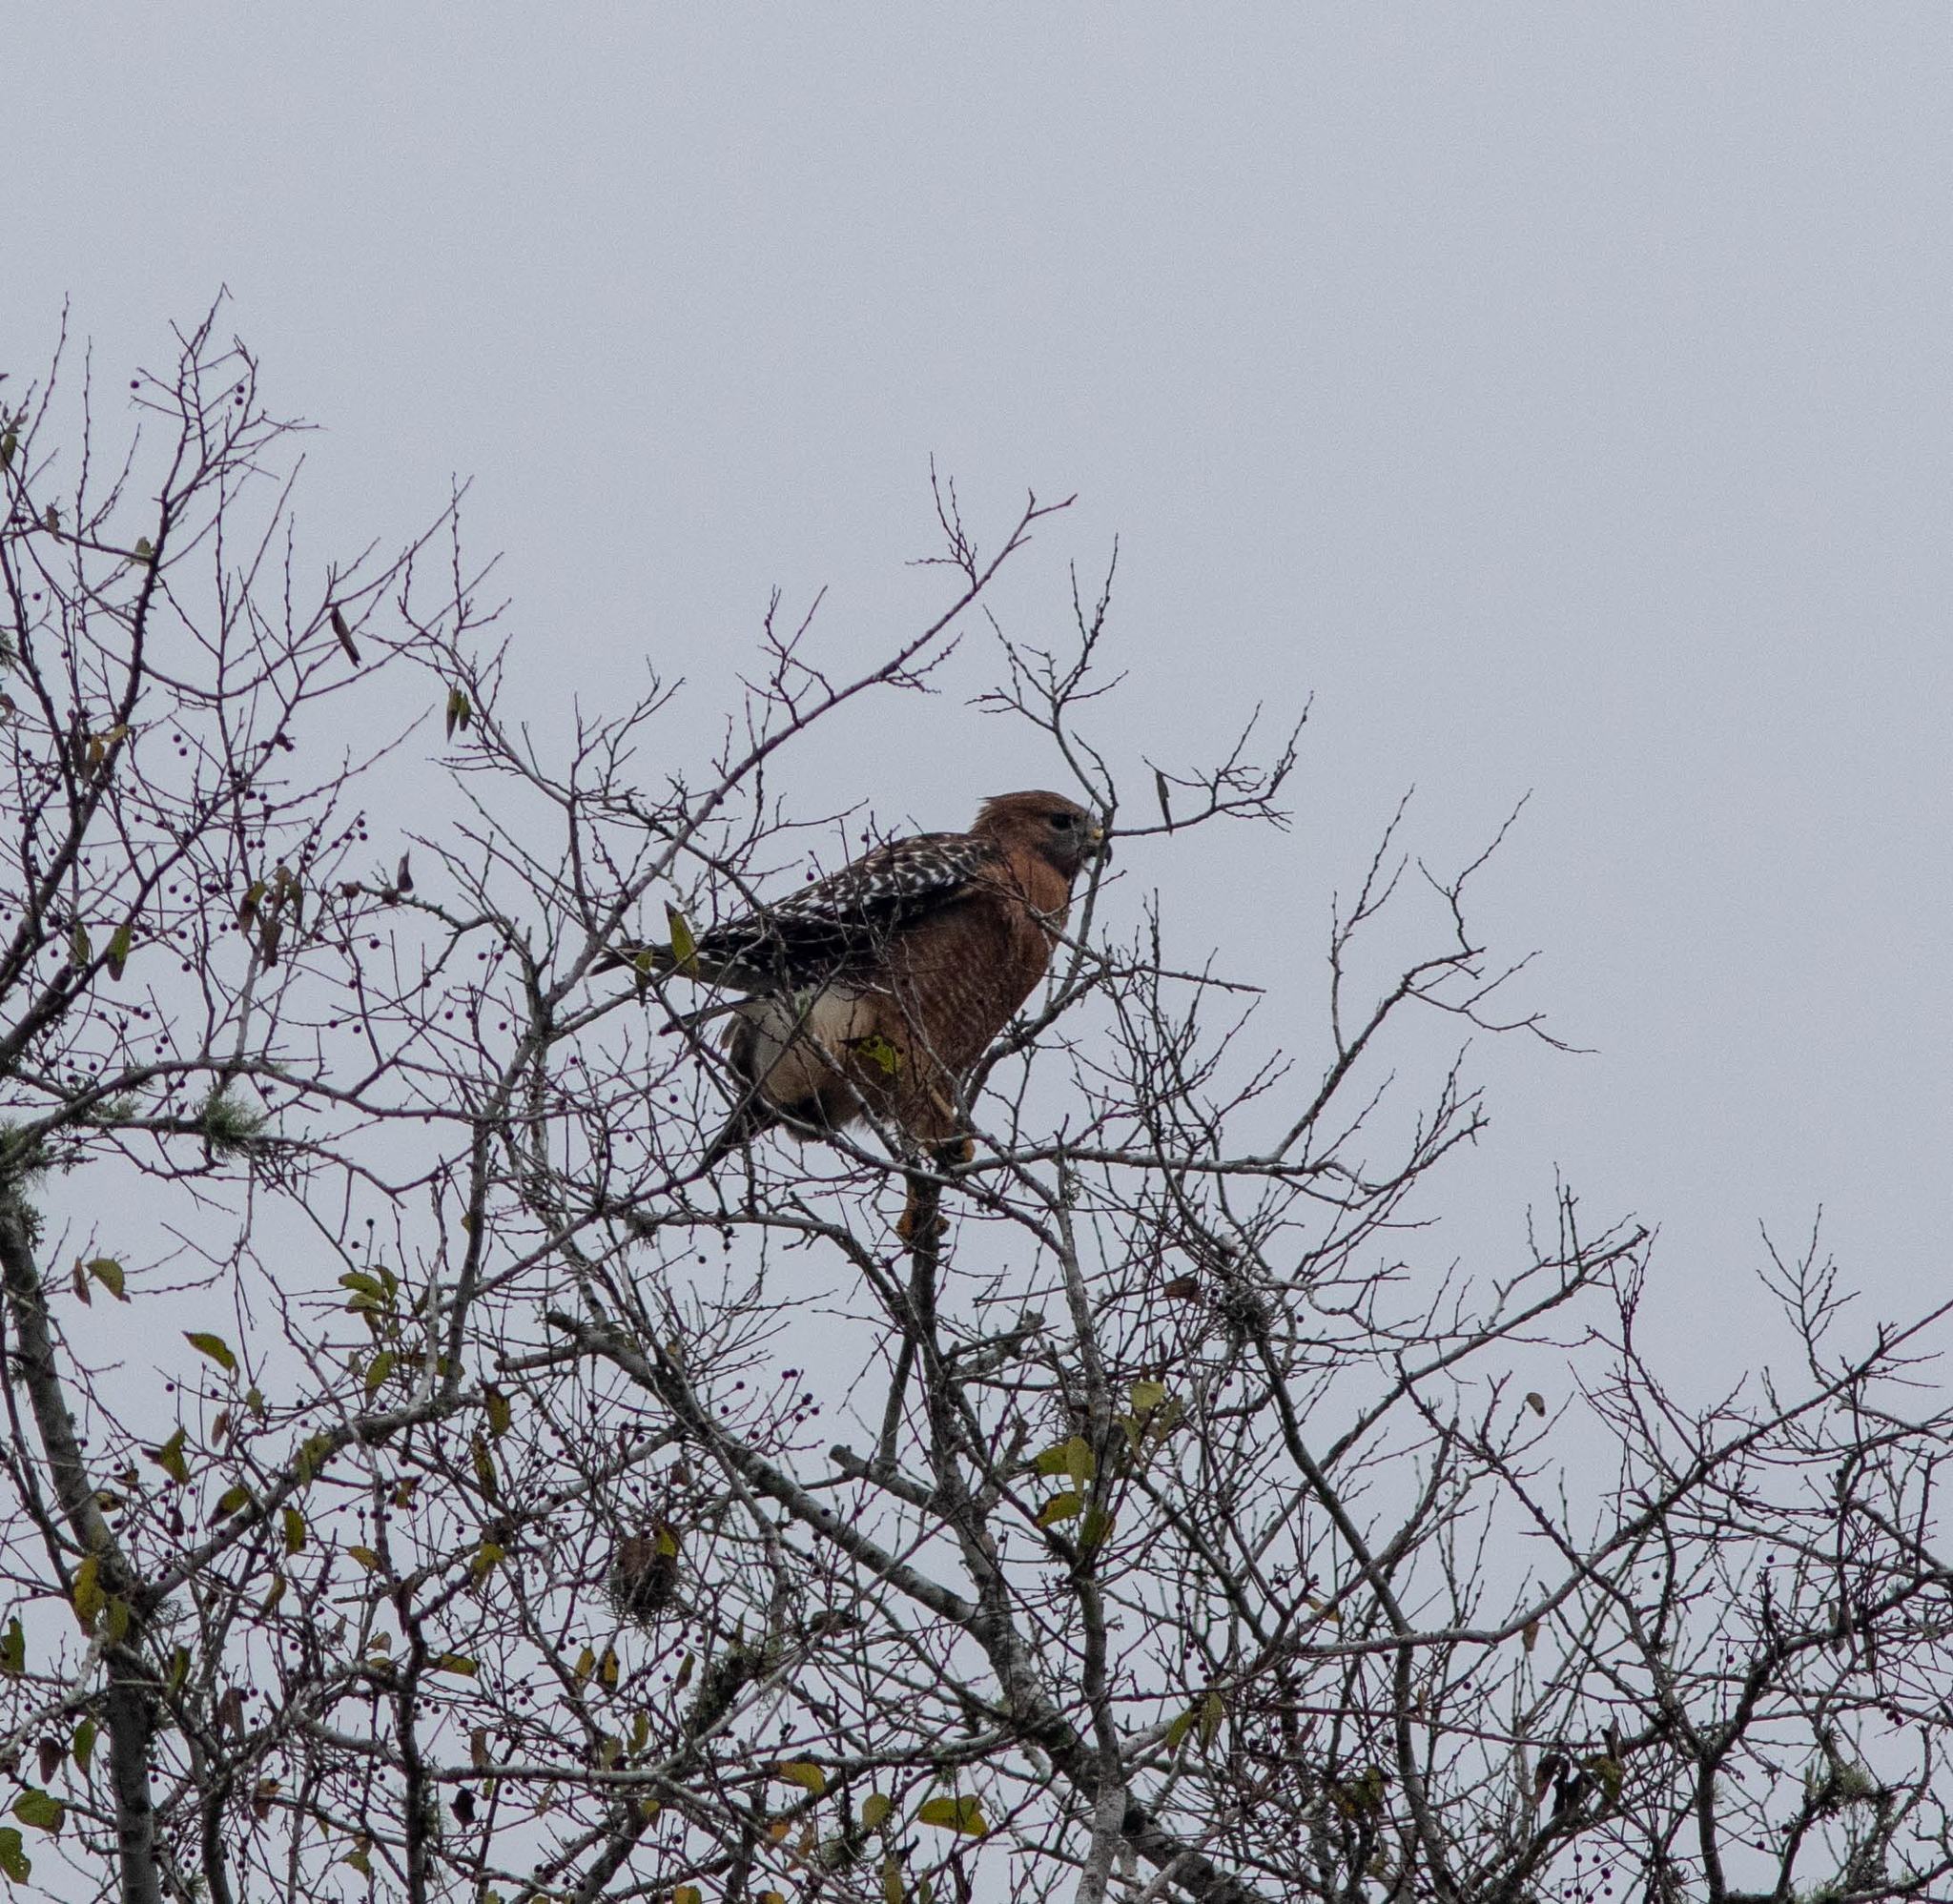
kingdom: Animalia
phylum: Chordata
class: Aves
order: Accipitriformes
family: Accipitridae
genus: Buteo
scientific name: Buteo lineatus
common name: Red-shouldered hawk
